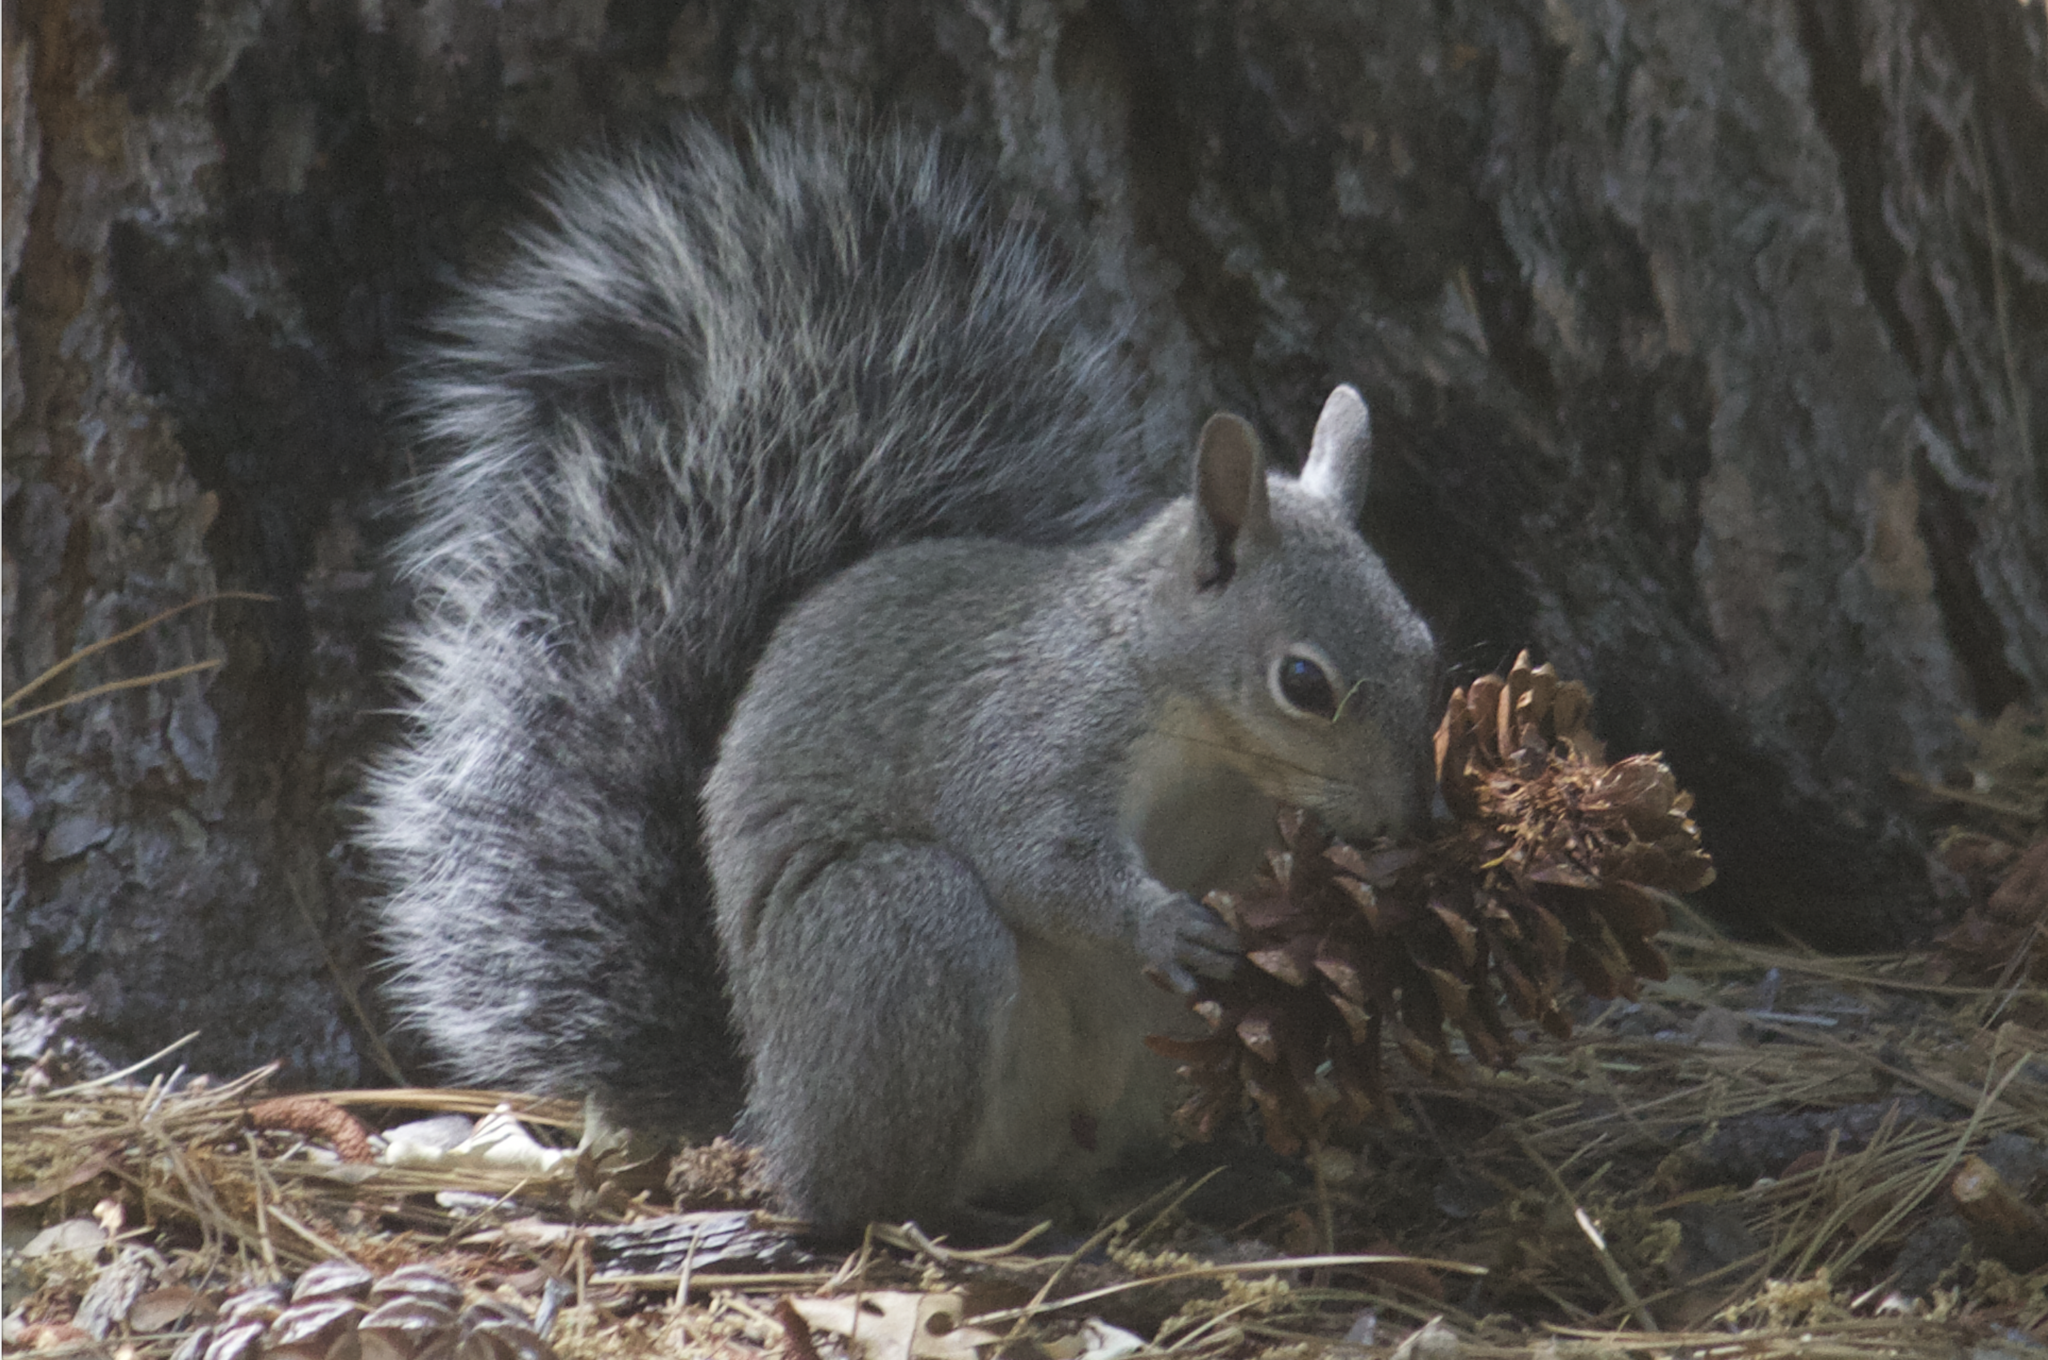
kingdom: Animalia
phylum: Chordata
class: Mammalia
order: Rodentia
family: Sciuridae
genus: Sciurus
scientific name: Sciurus griseus
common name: Western gray squirrel
